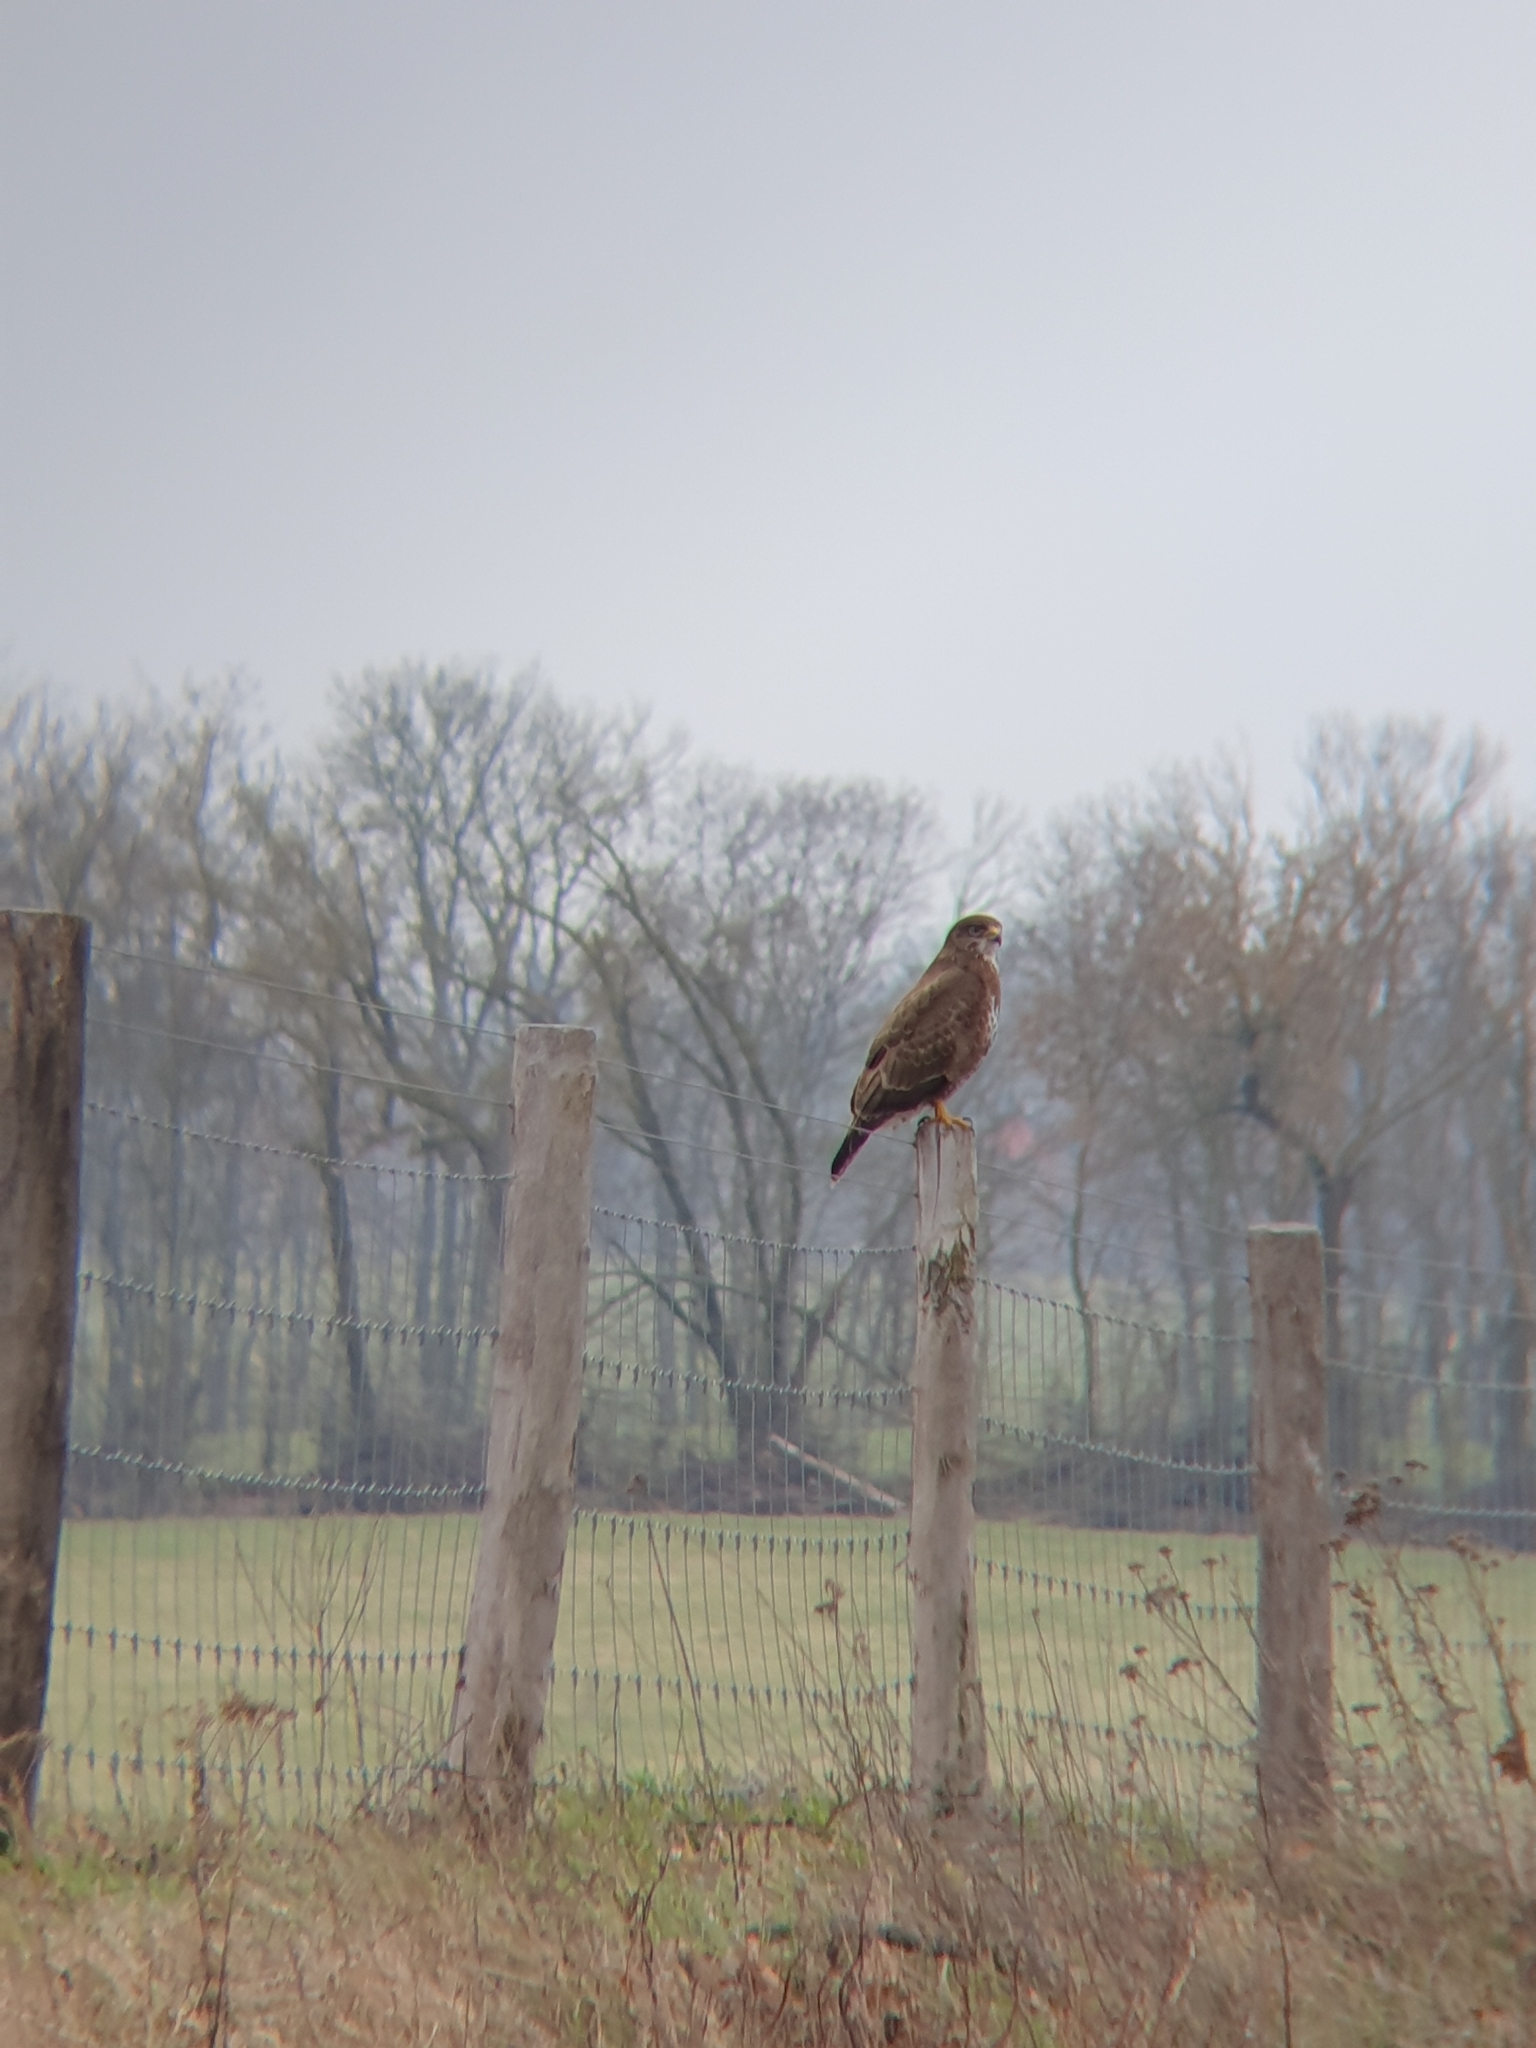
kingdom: Animalia
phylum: Chordata
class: Aves
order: Accipitriformes
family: Accipitridae
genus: Buteo
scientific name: Buteo buteo
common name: Common buzzard
